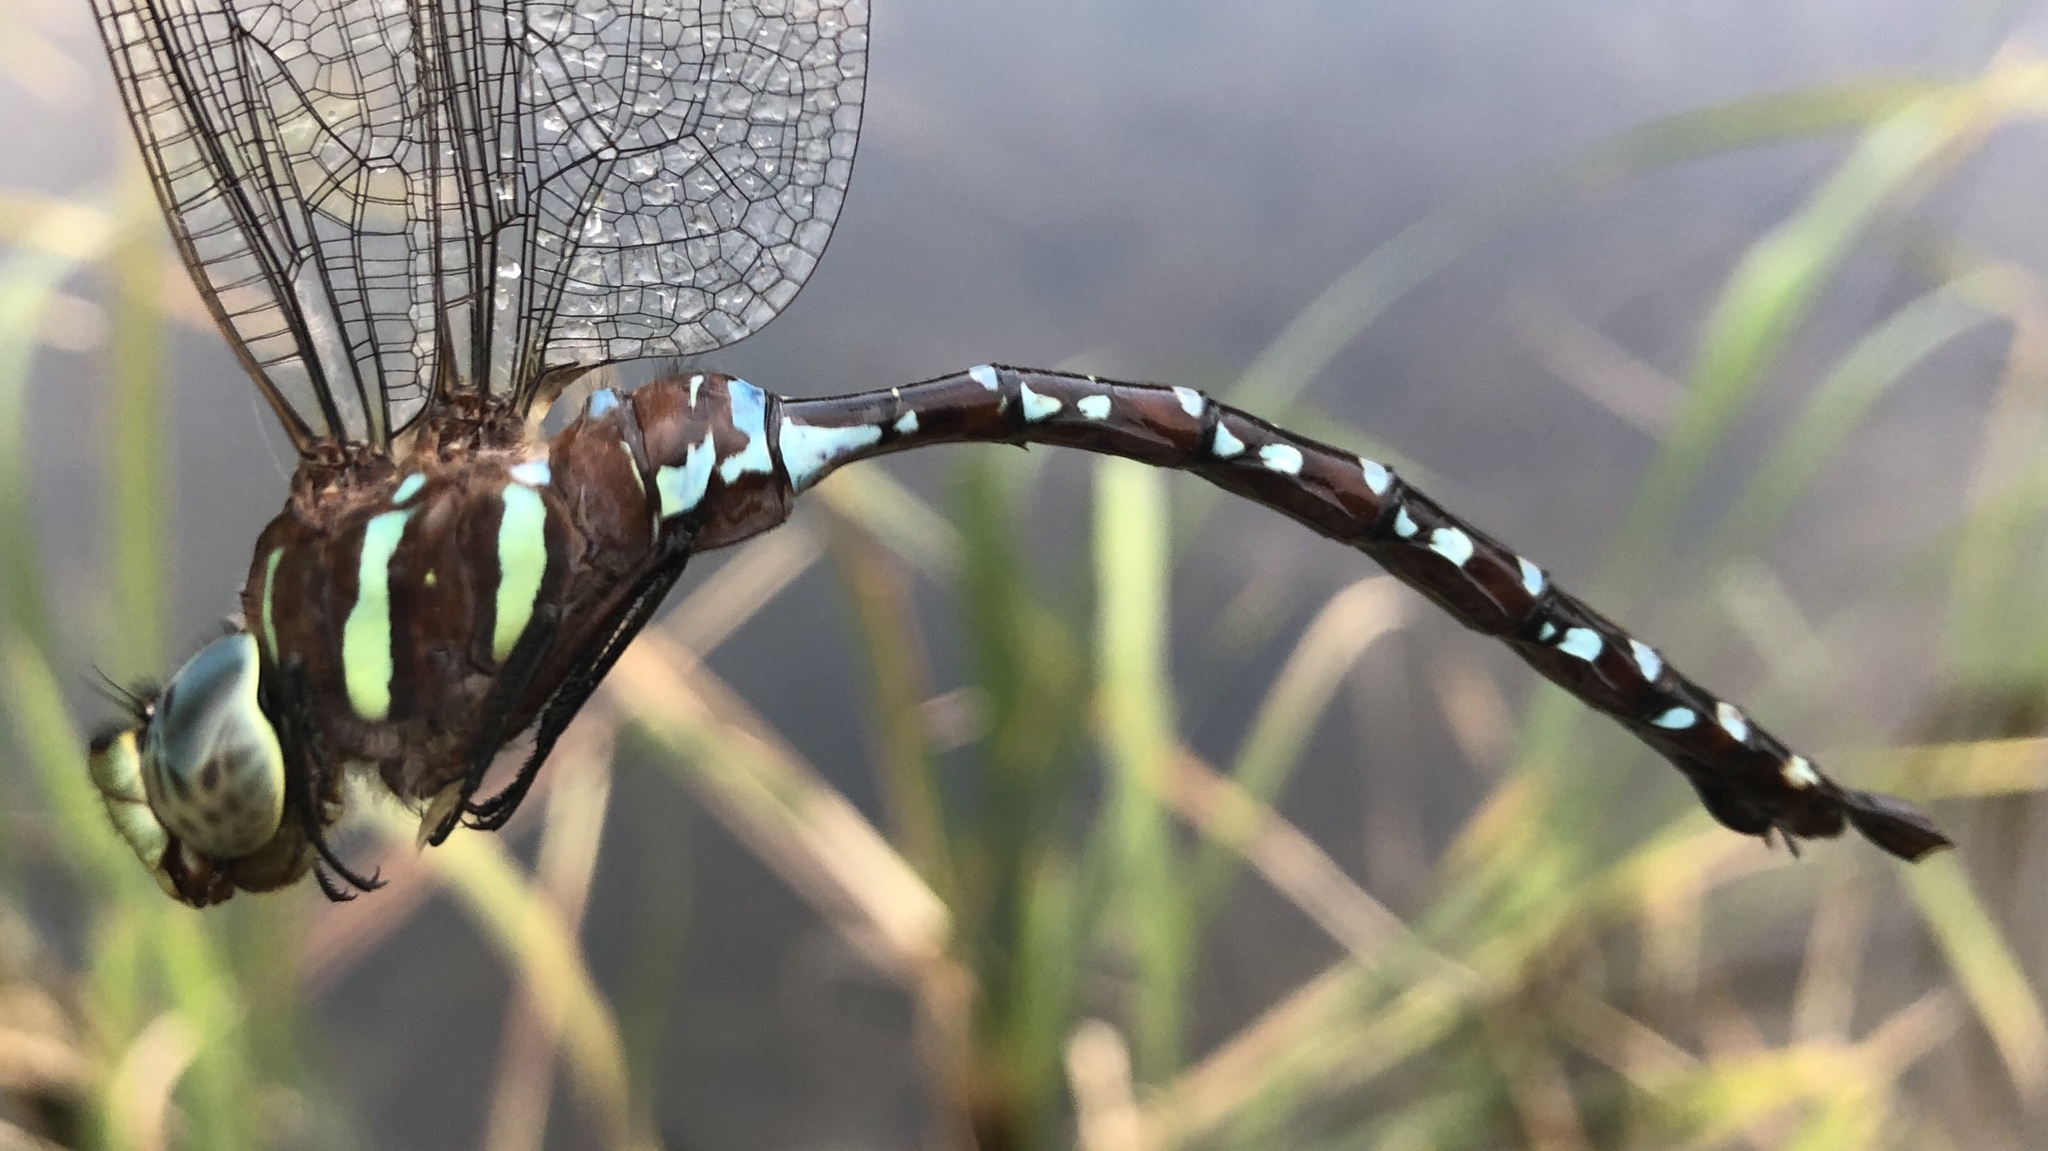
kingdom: Animalia
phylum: Arthropoda
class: Insecta
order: Odonata
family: Aeshnidae
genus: Aeshna
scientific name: Aeshna tuberculifera
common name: Aeschne à tubercules
